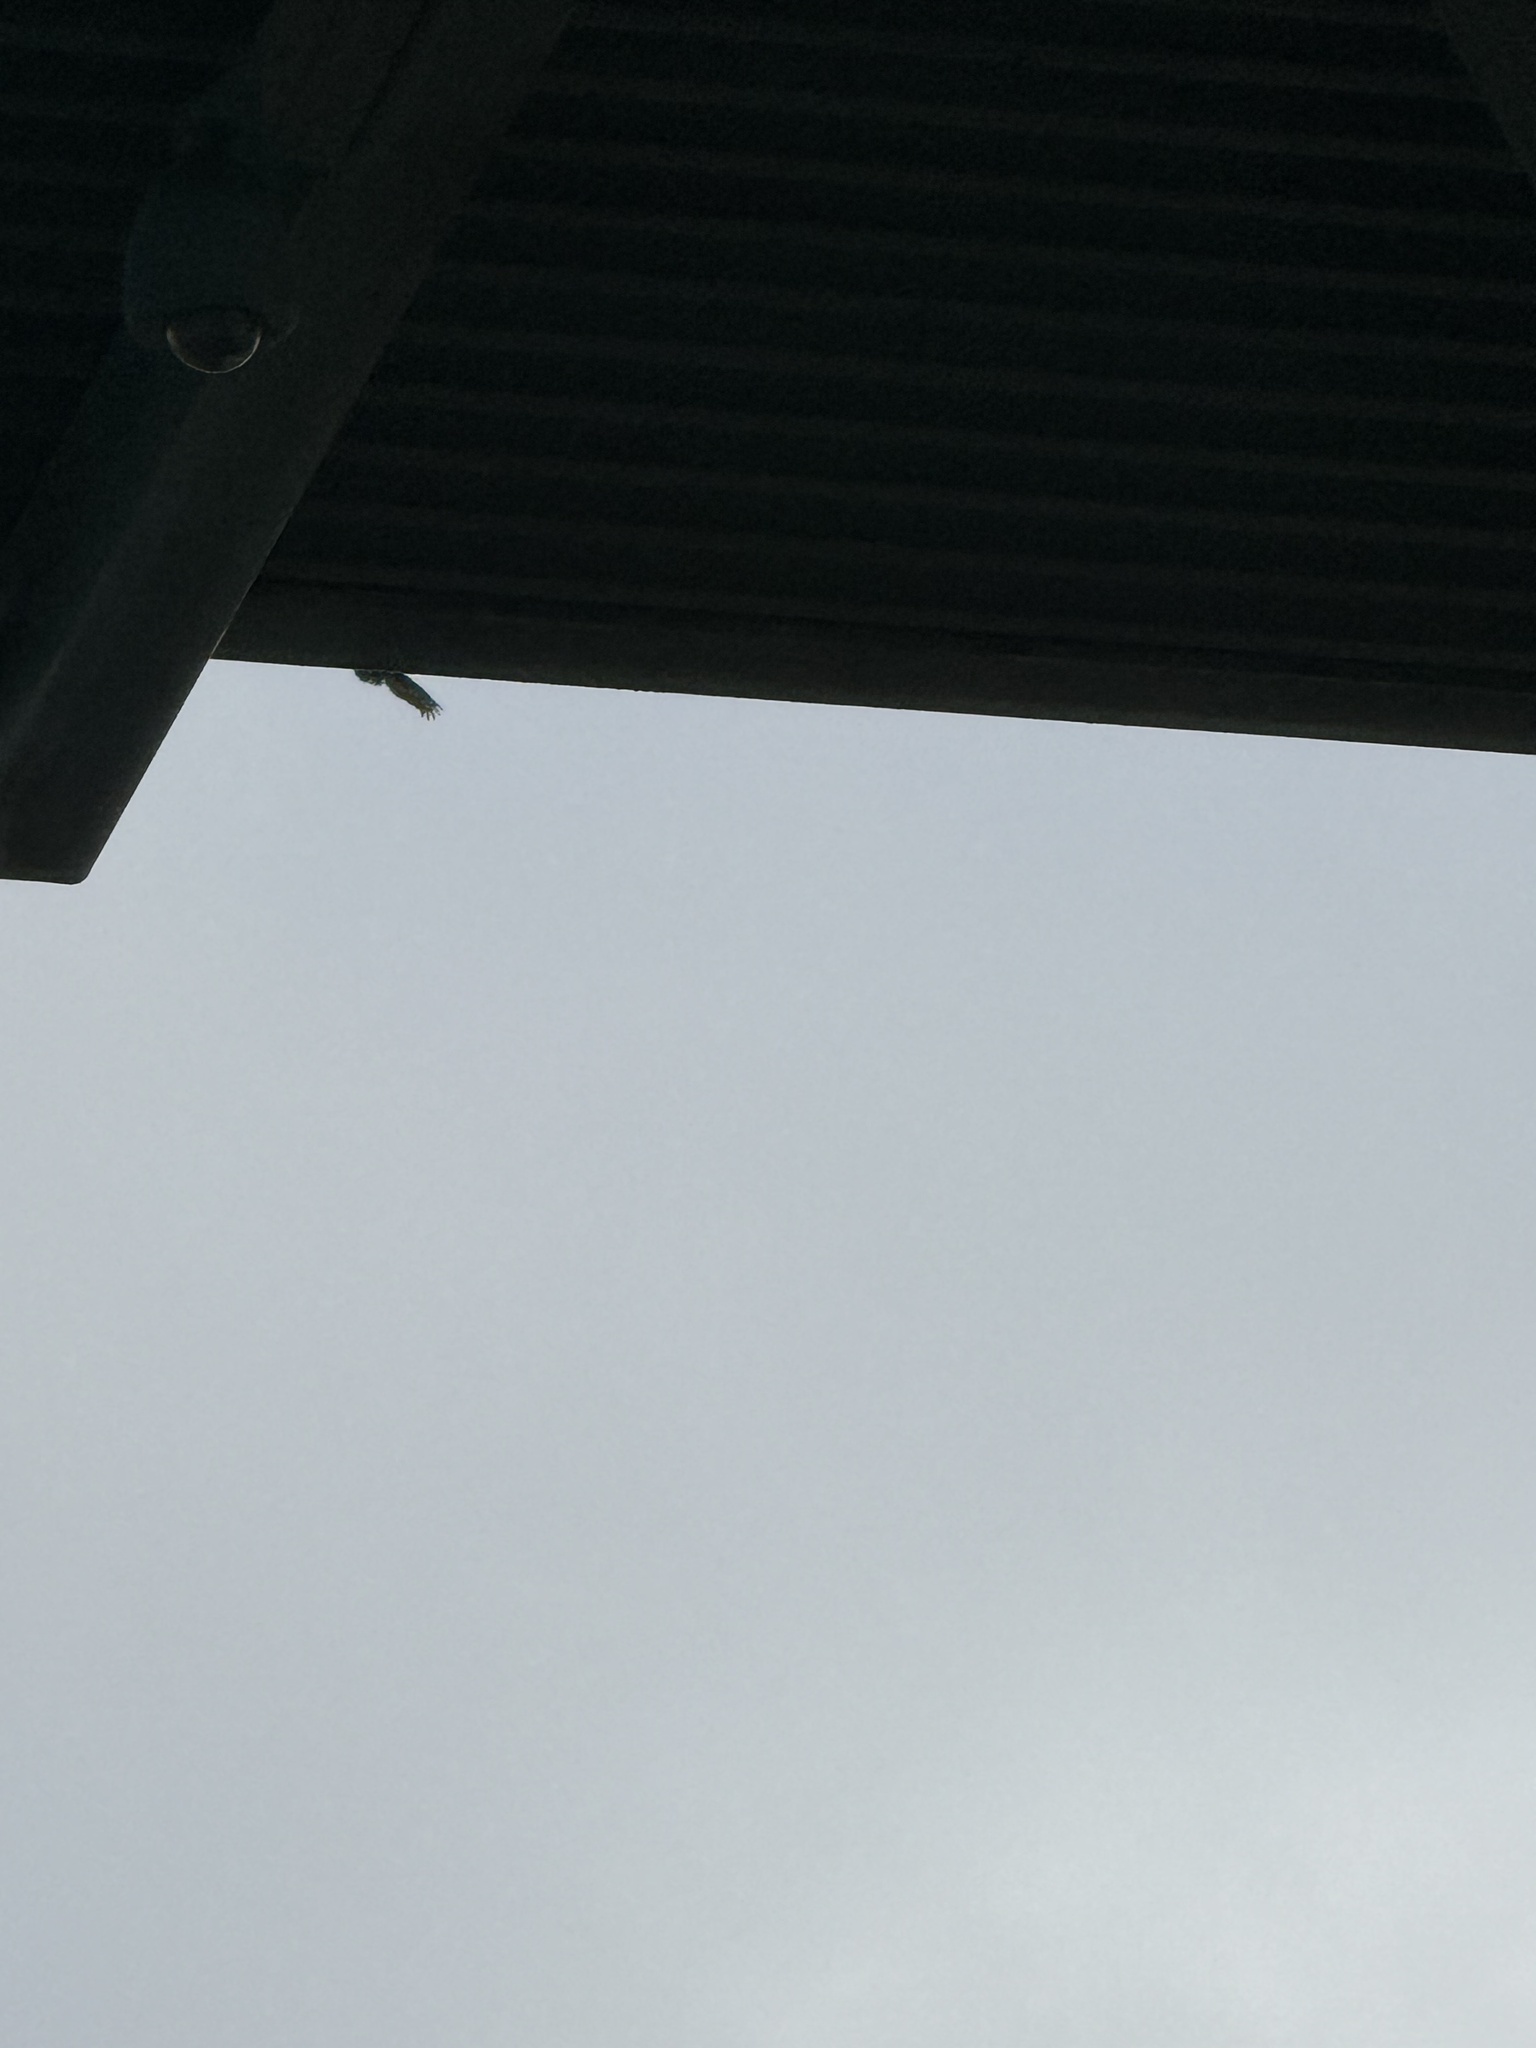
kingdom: Animalia
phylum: Chordata
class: Aves
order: Accipitriformes
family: Cathartidae
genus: Cathartes
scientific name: Cathartes aura
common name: Turkey vulture
